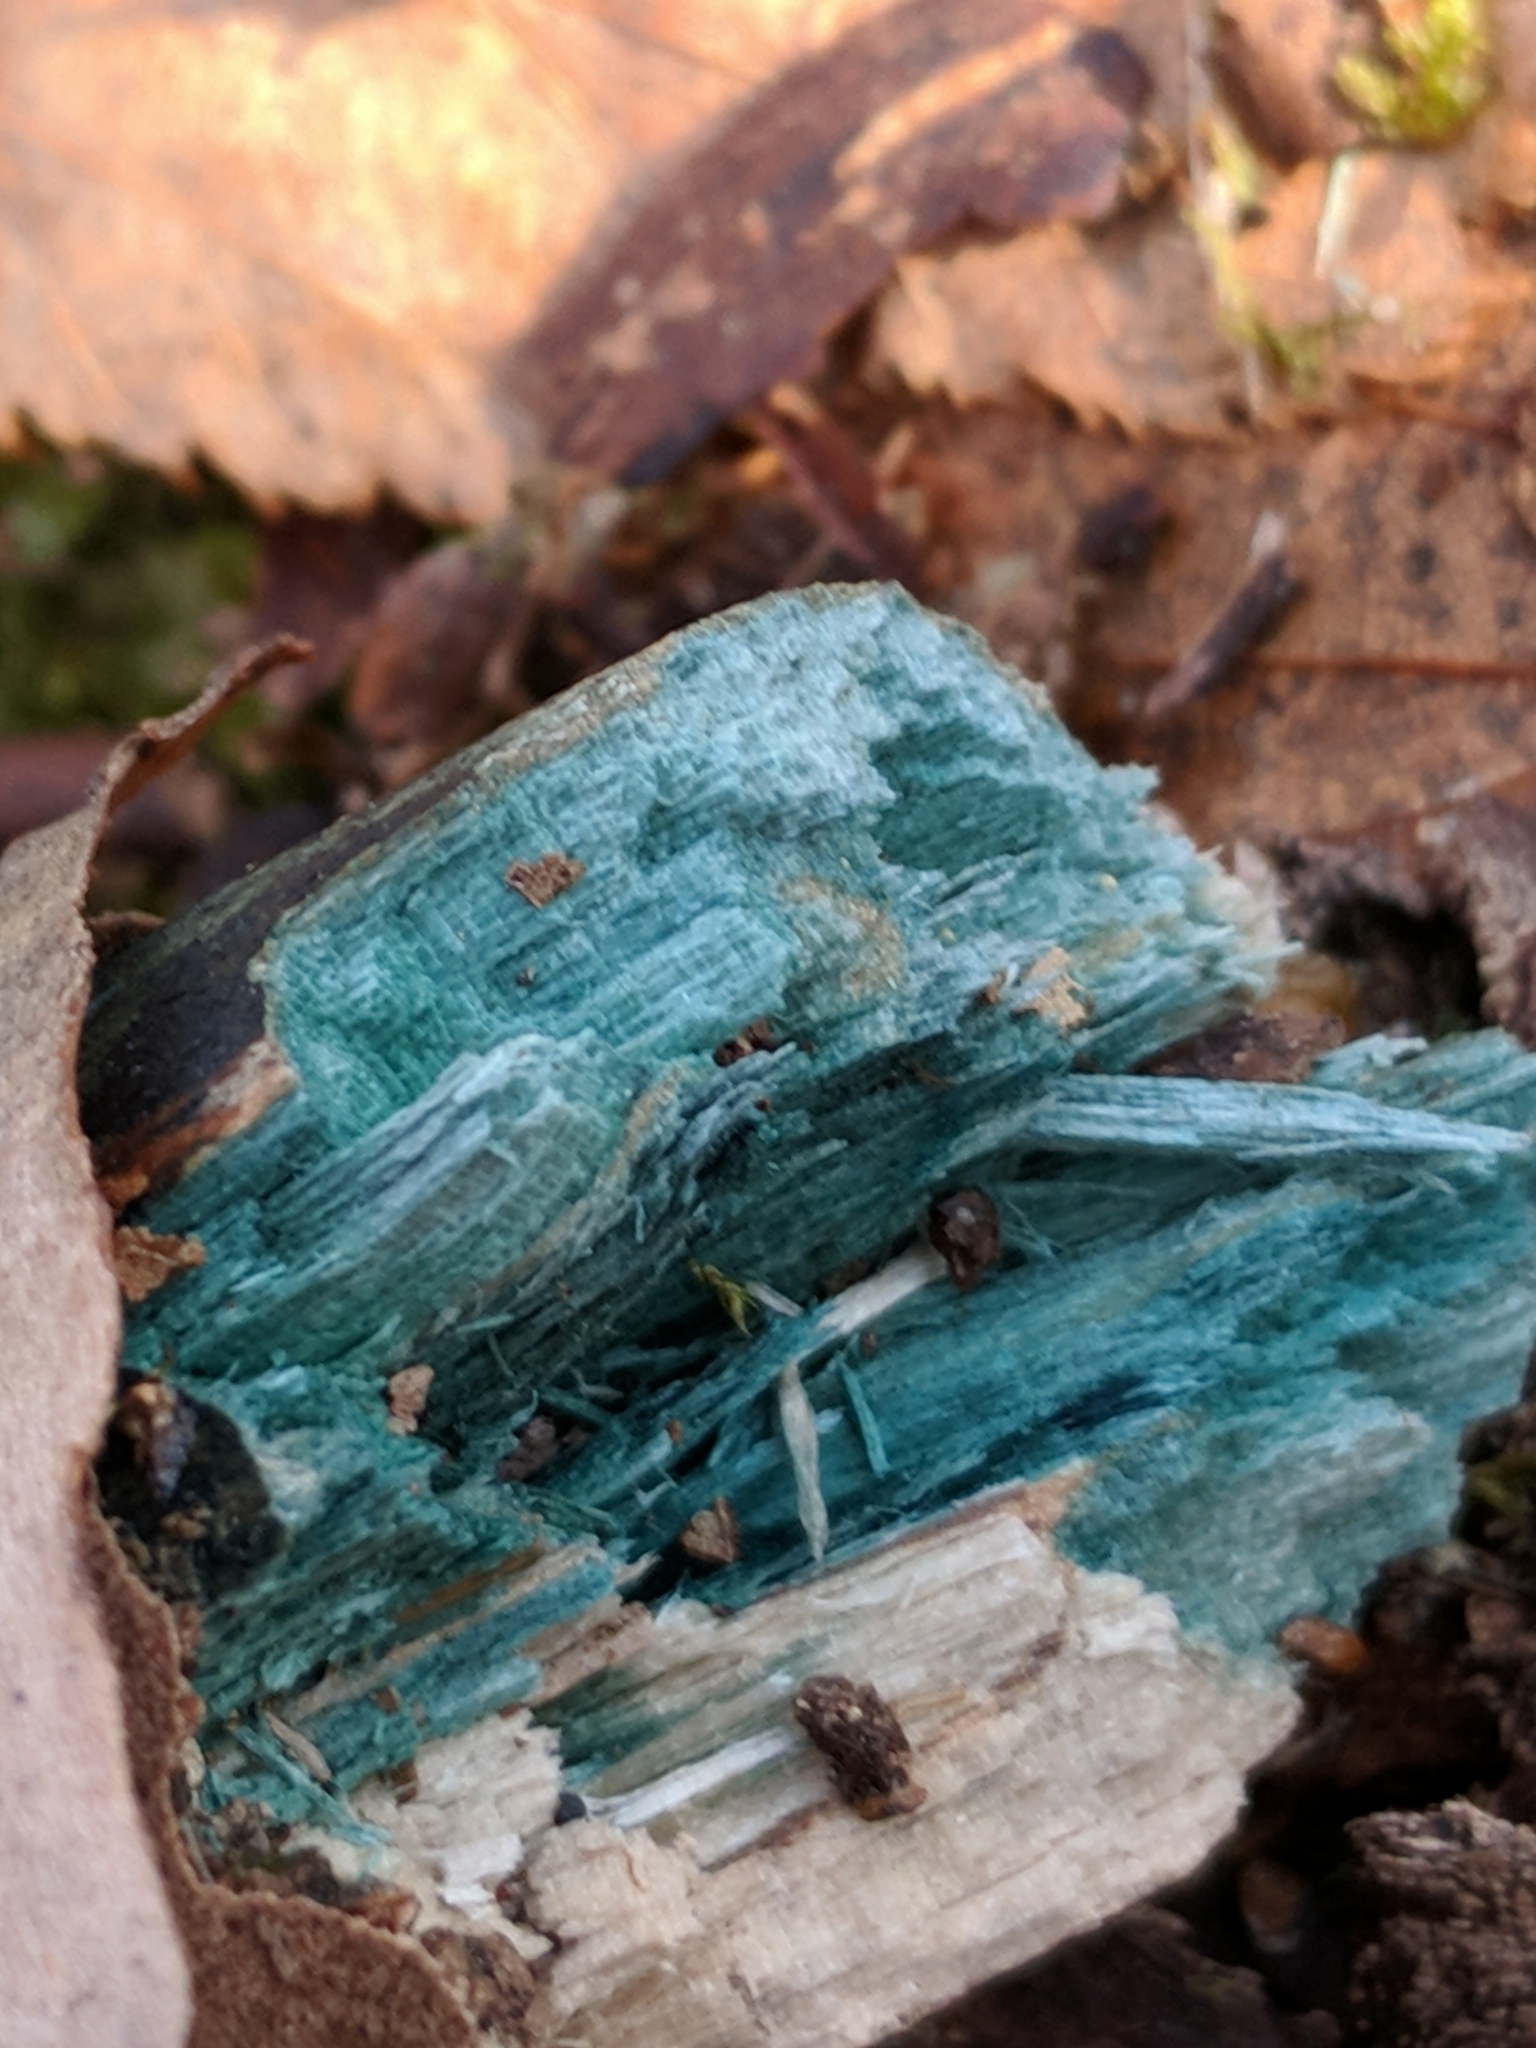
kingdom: Fungi
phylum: Ascomycota
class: Leotiomycetes
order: Helotiales
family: Chlorociboriaceae
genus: Chlorociboria
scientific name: Chlorociboria
